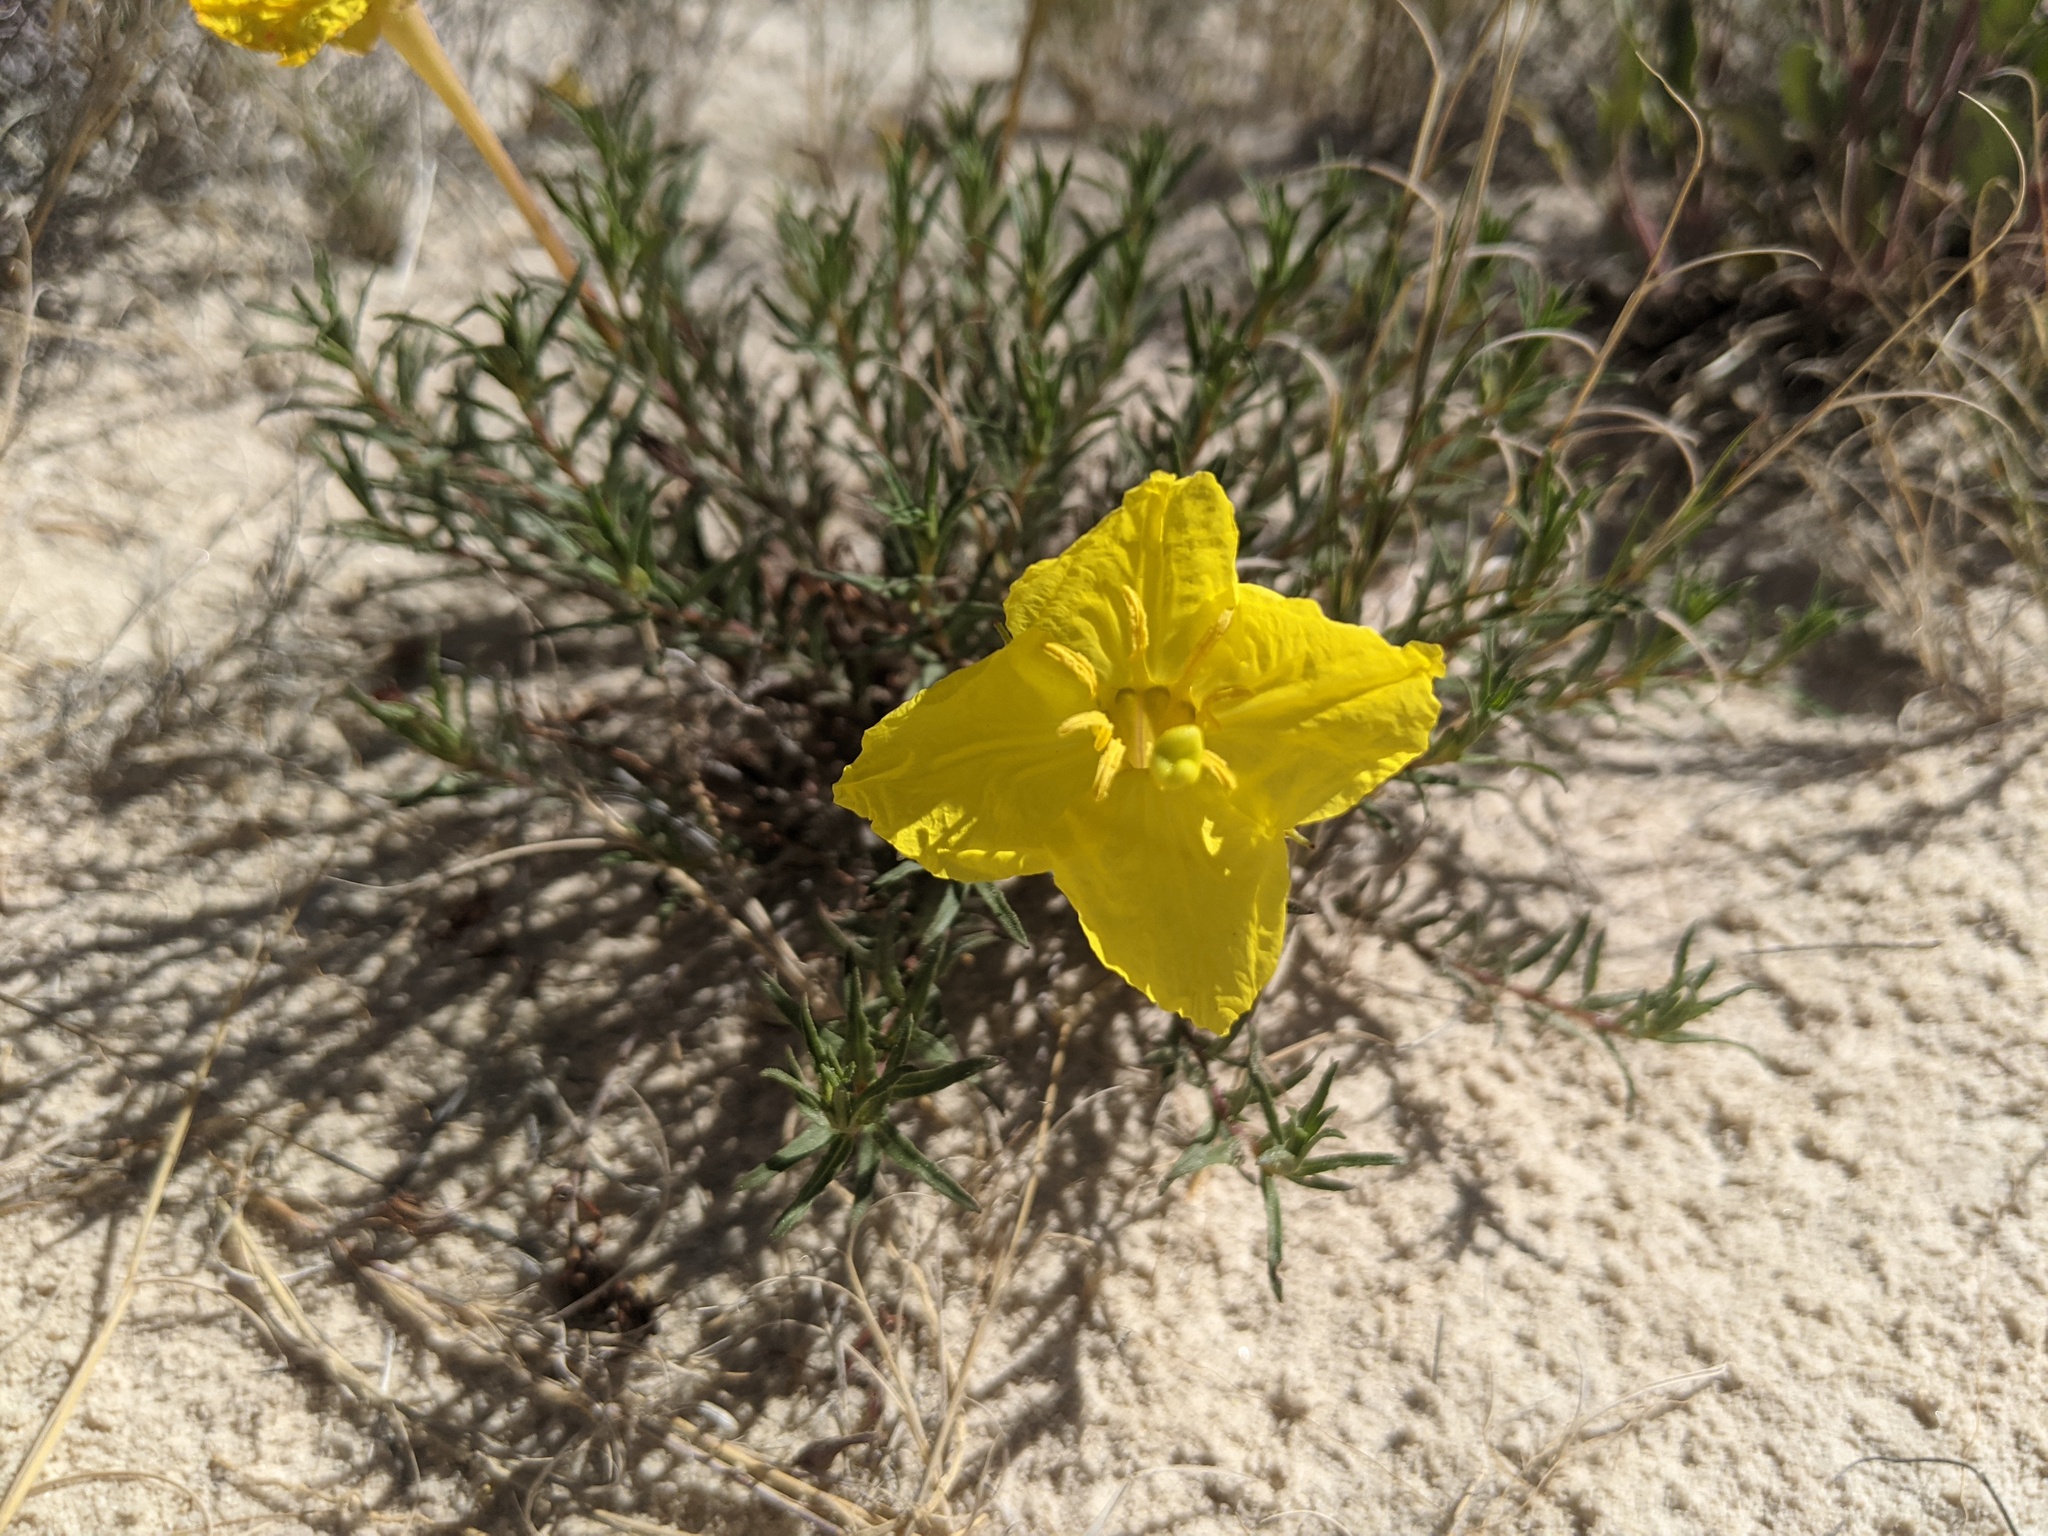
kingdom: Plantae
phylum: Tracheophyta
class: Magnoliopsida
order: Myrtales
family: Onagraceae
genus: Oenothera
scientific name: Oenothera hartwegii
